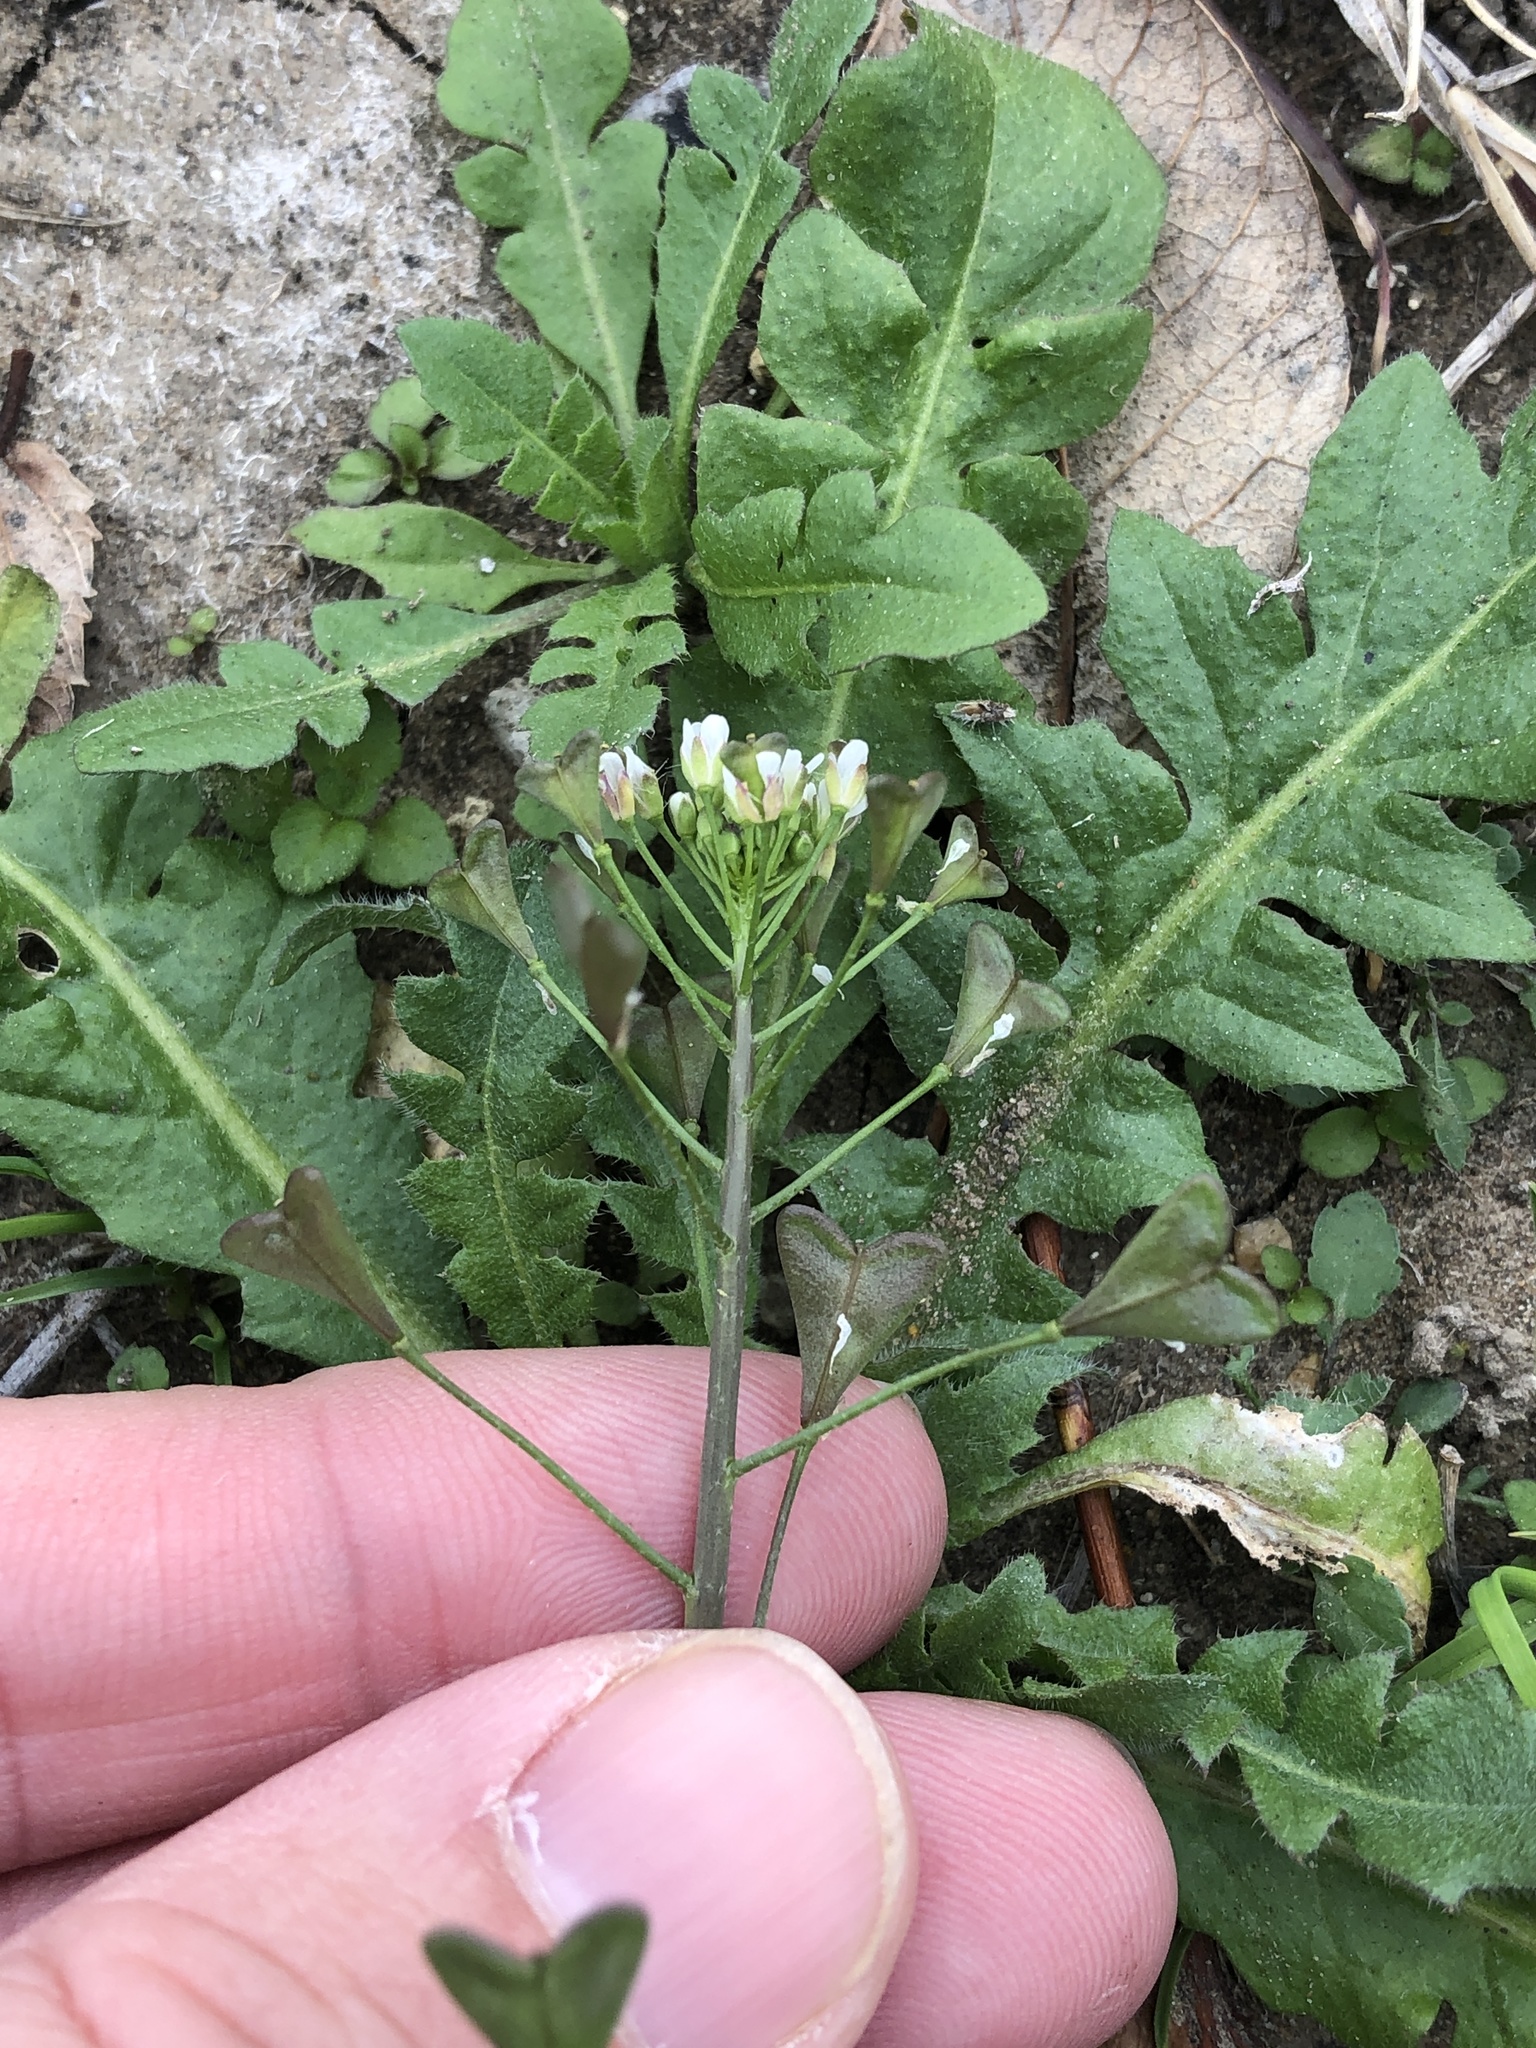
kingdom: Plantae
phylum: Tracheophyta
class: Magnoliopsida
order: Brassicales
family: Brassicaceae
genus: Capsella
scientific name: Capsella bursa-pastoris
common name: Shepherd's purse
